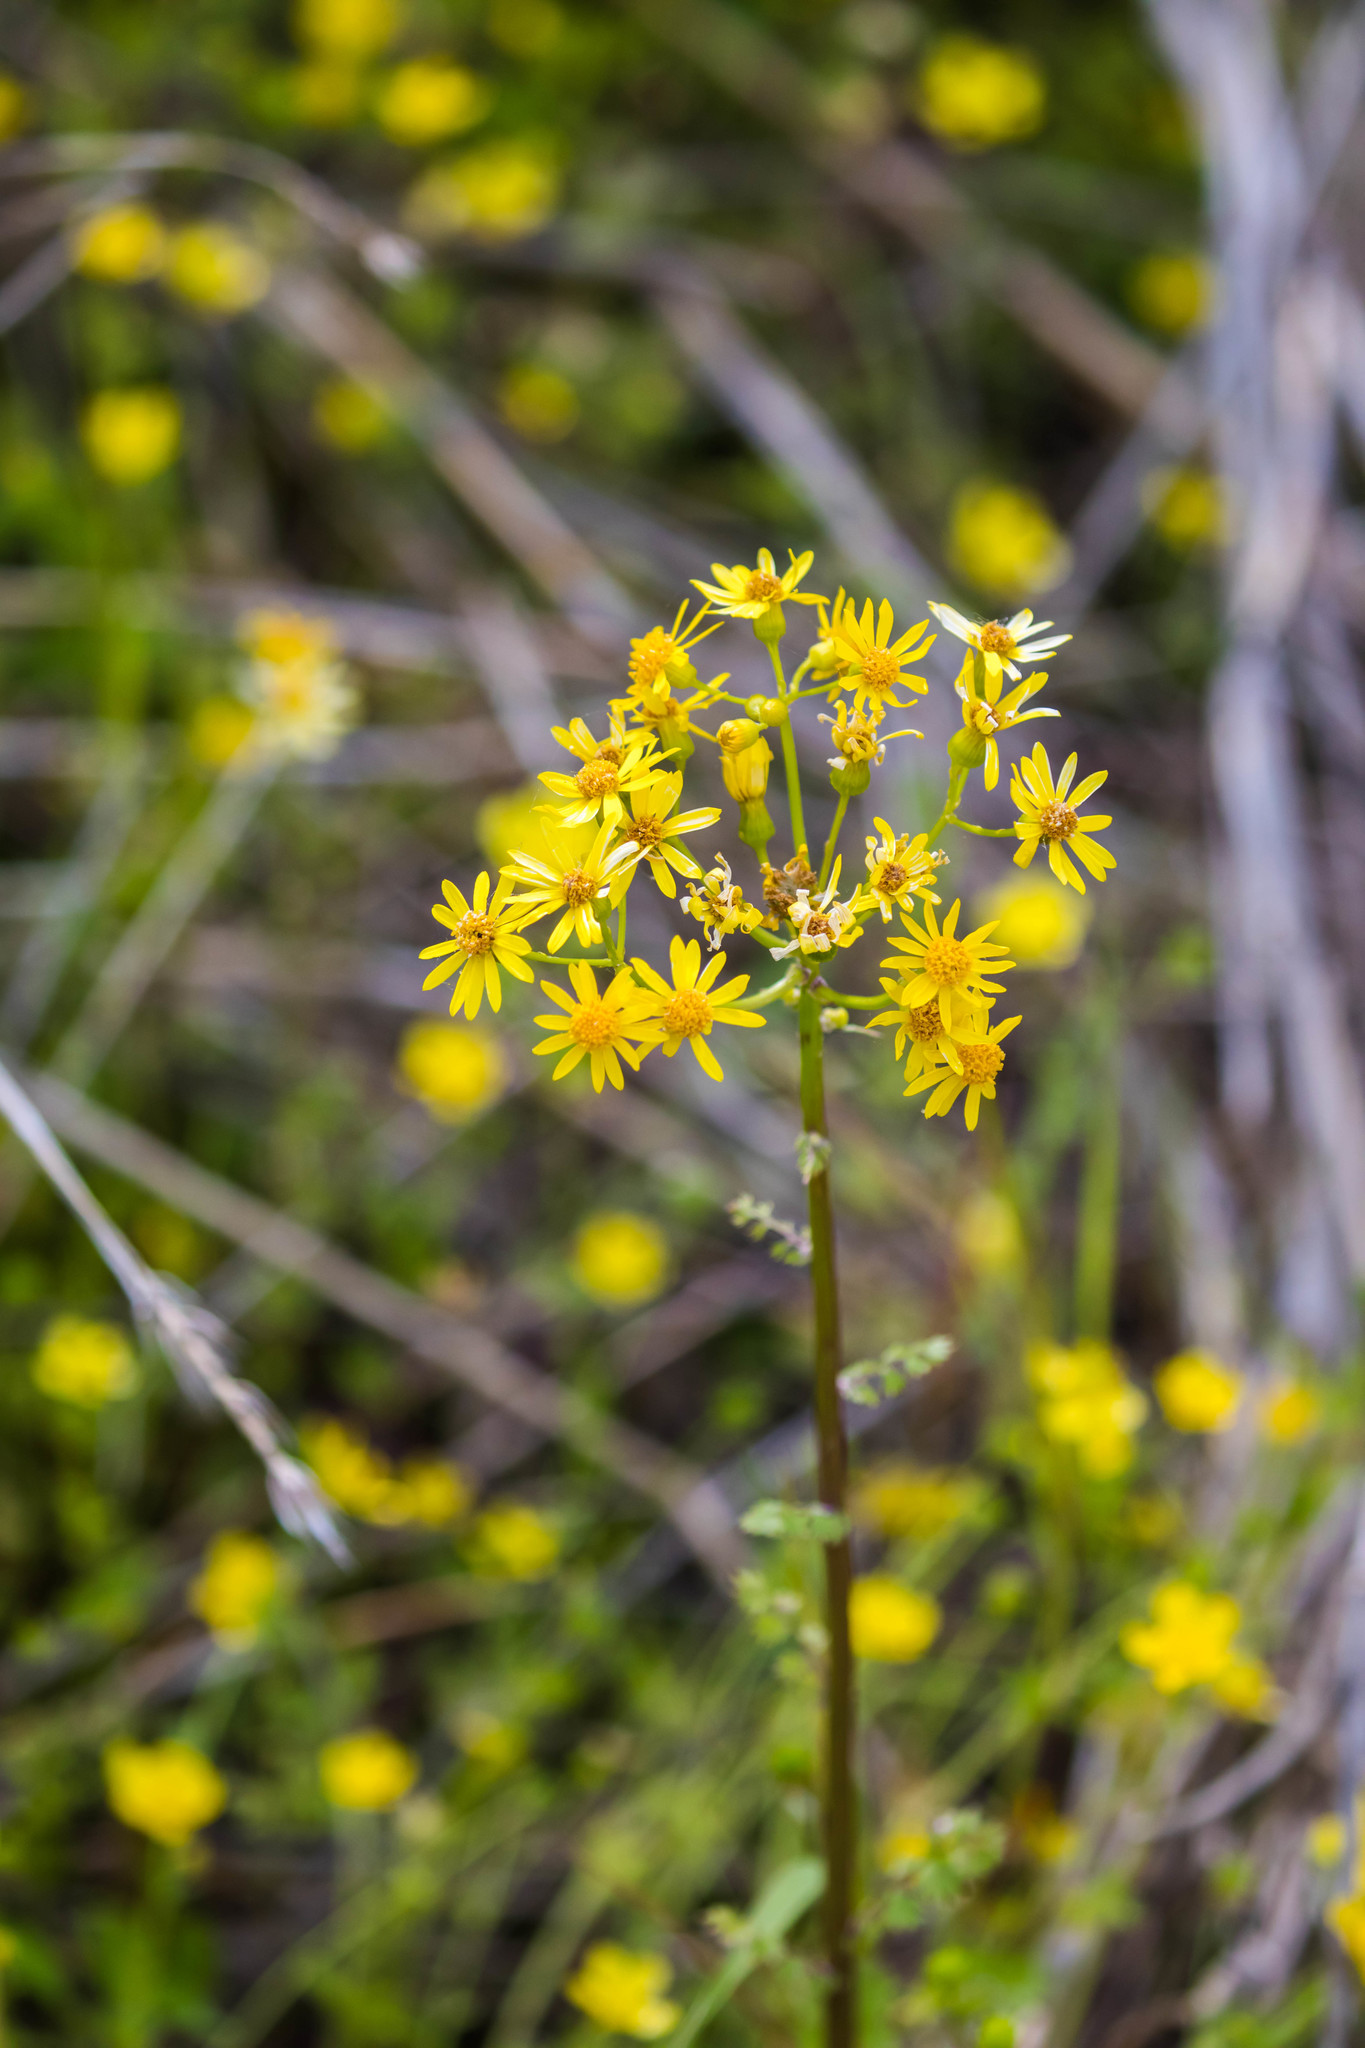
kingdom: Plantae
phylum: Tracheophyta
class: Magnoliopsida
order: Asterales
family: Asteraceae
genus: Packera
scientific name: Packera glabella
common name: Butterweed
